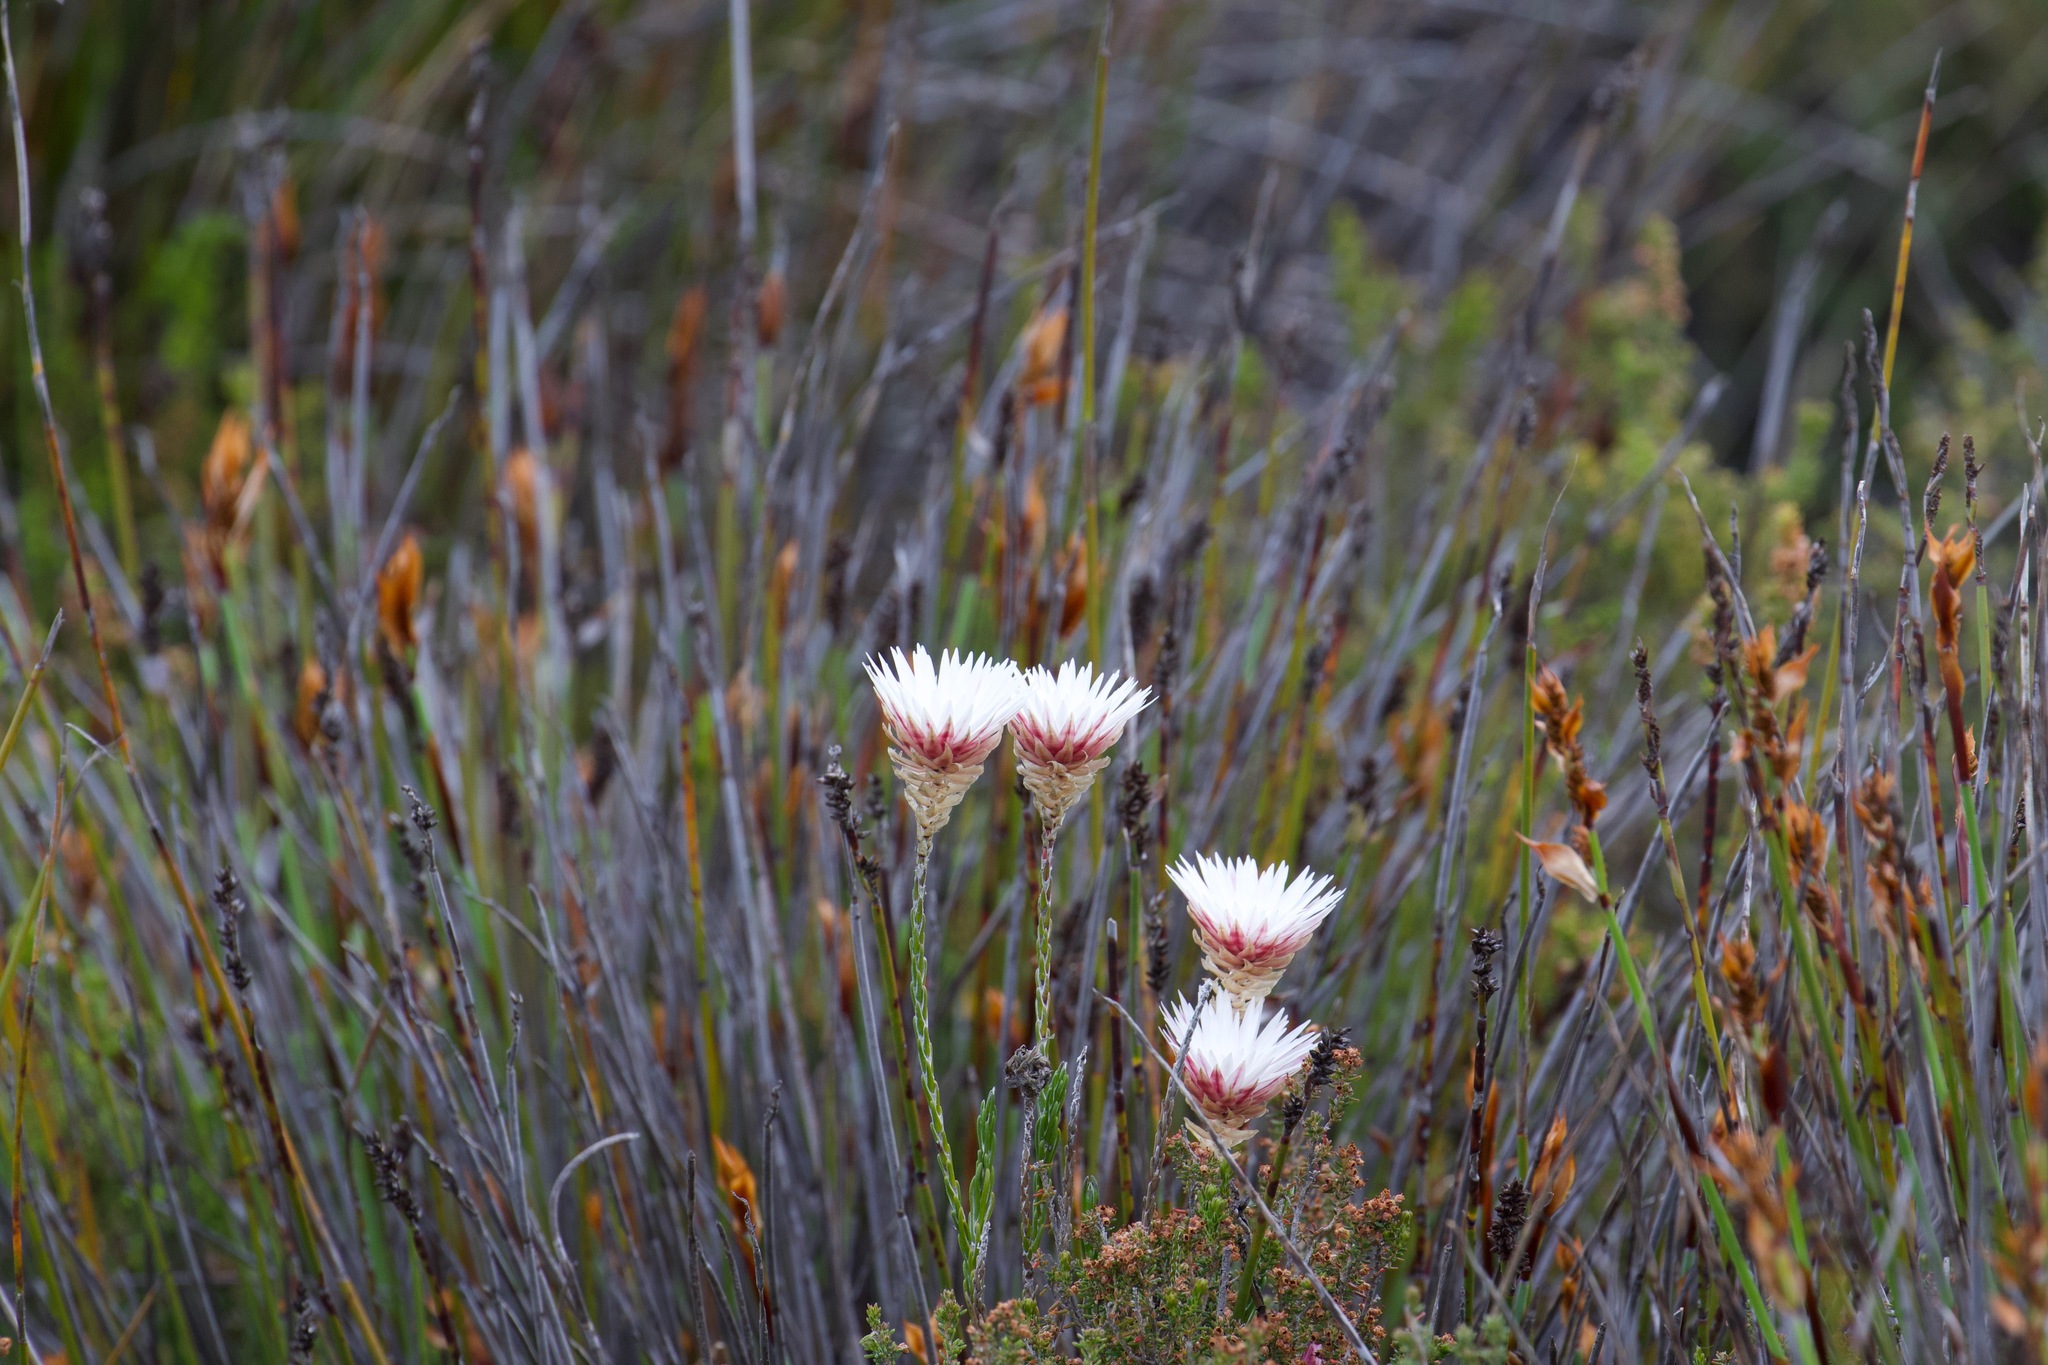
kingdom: Plantae
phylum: Tracheophyta
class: Magnoliopsida
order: Asterales
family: Asteraceae
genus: Edmondia
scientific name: Edmondia pinifolia
